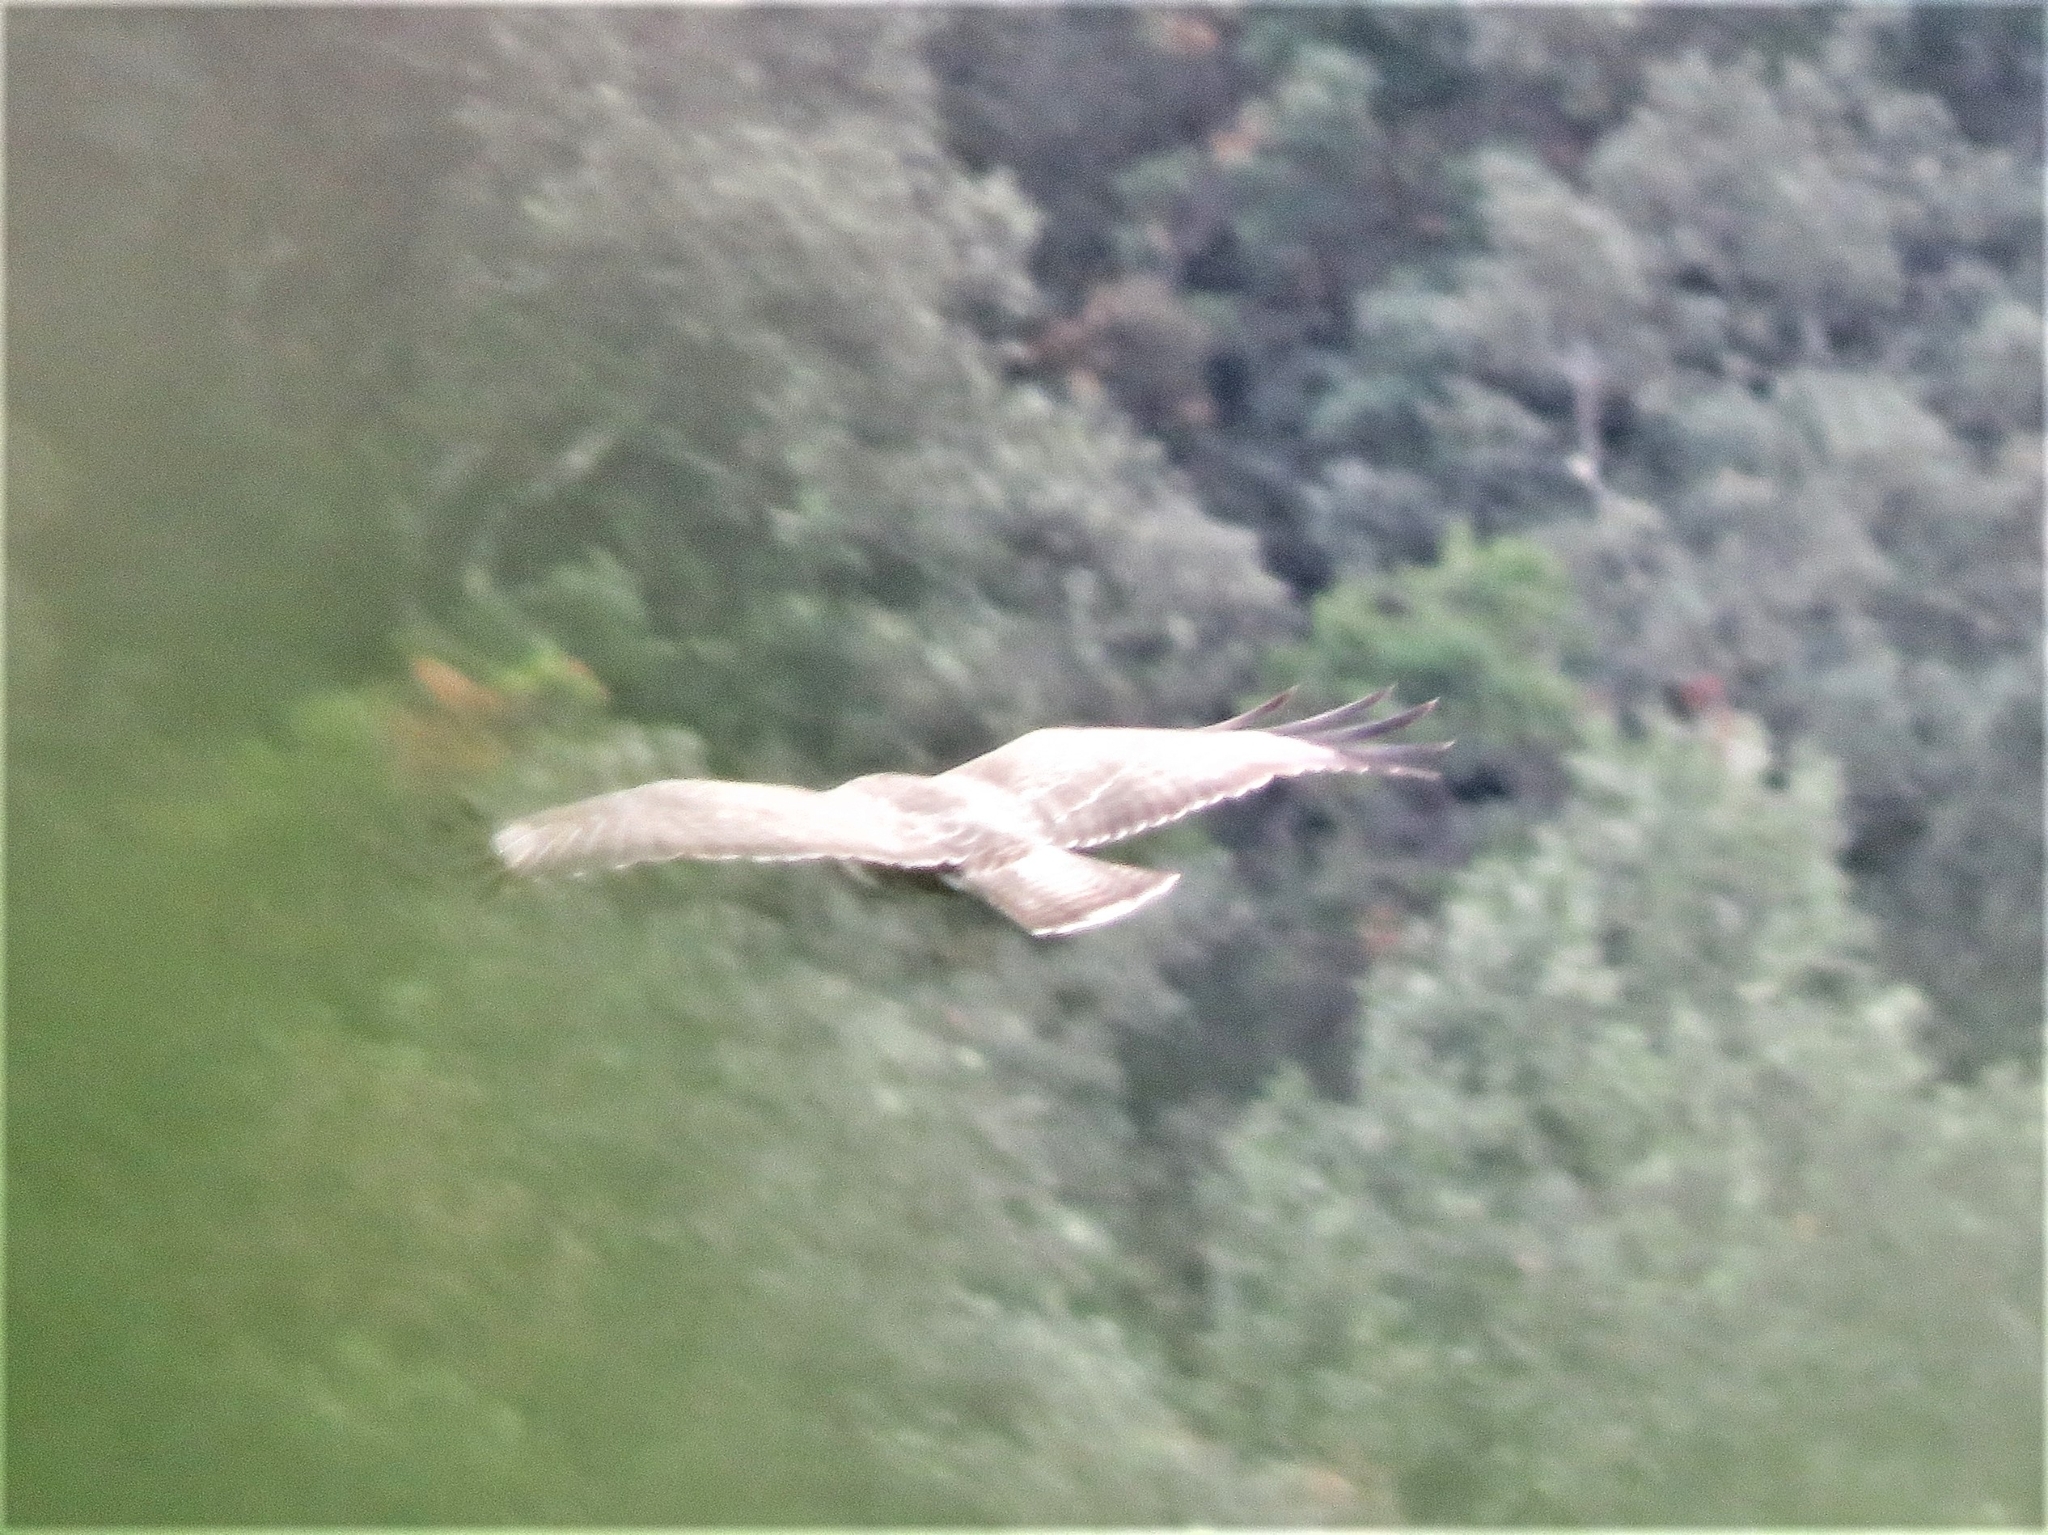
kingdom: Animalia
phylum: Chordata
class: Aves
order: Accipitriformes
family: Accipitridae
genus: Buteo
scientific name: Buteo buteo
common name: Common buzzard
